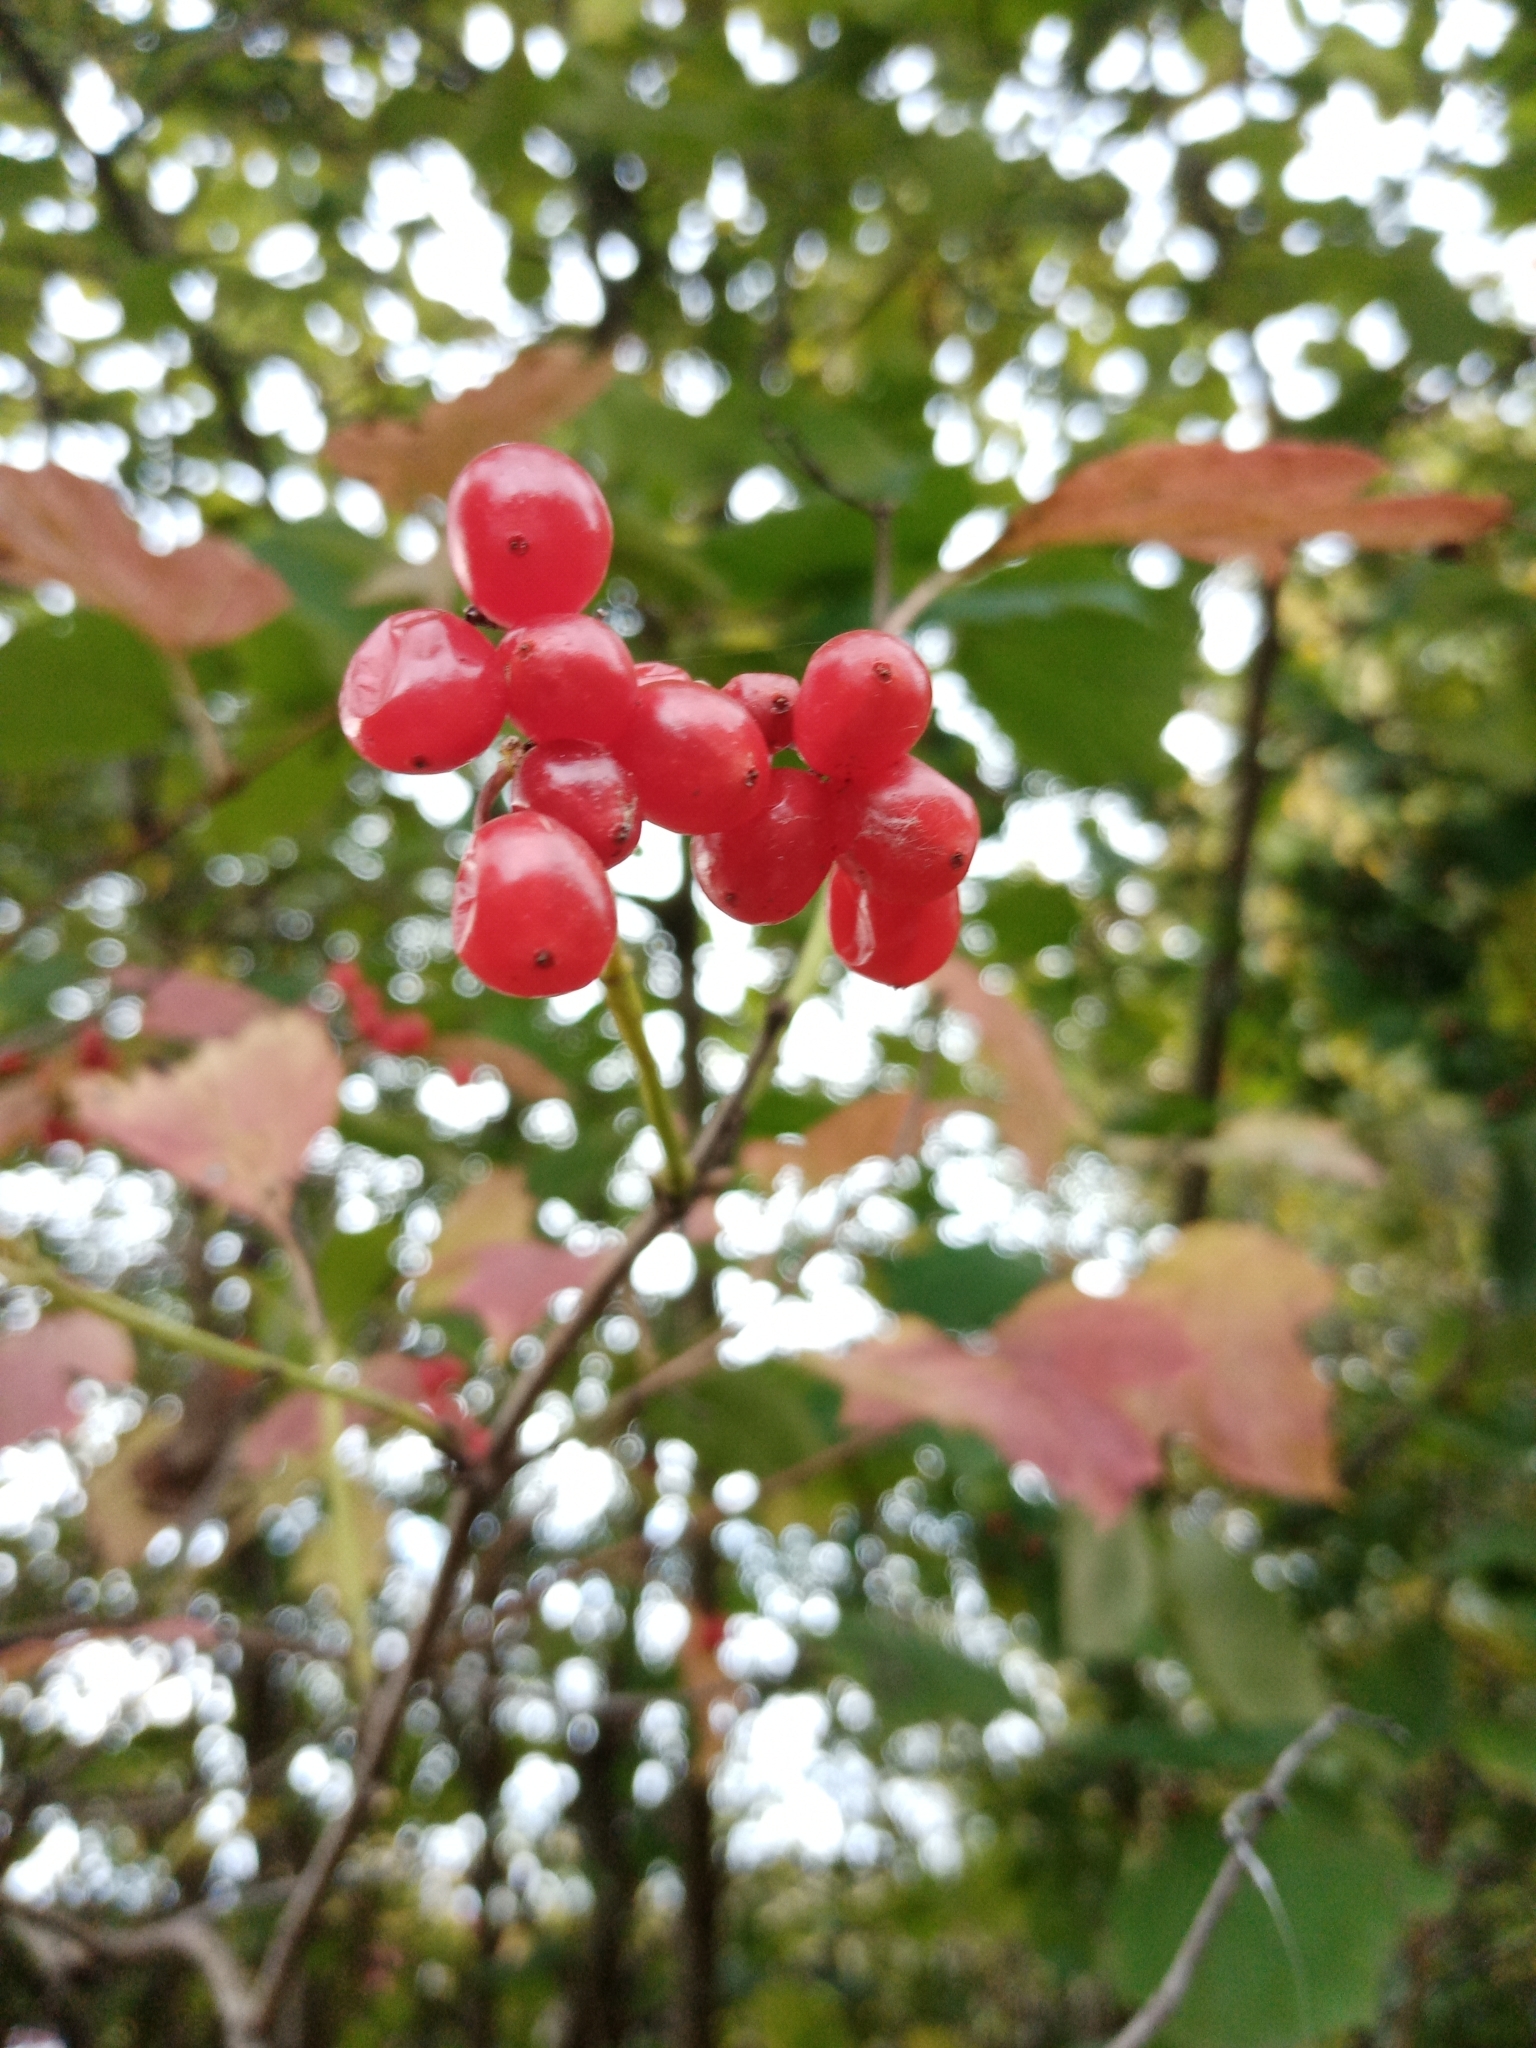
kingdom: Plantae
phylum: Tracheophyta
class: Magnoliopsida
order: Dipsacales
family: Viburnaceae
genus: Viburnum
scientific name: Viburnum opulus
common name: Guelder-rose
